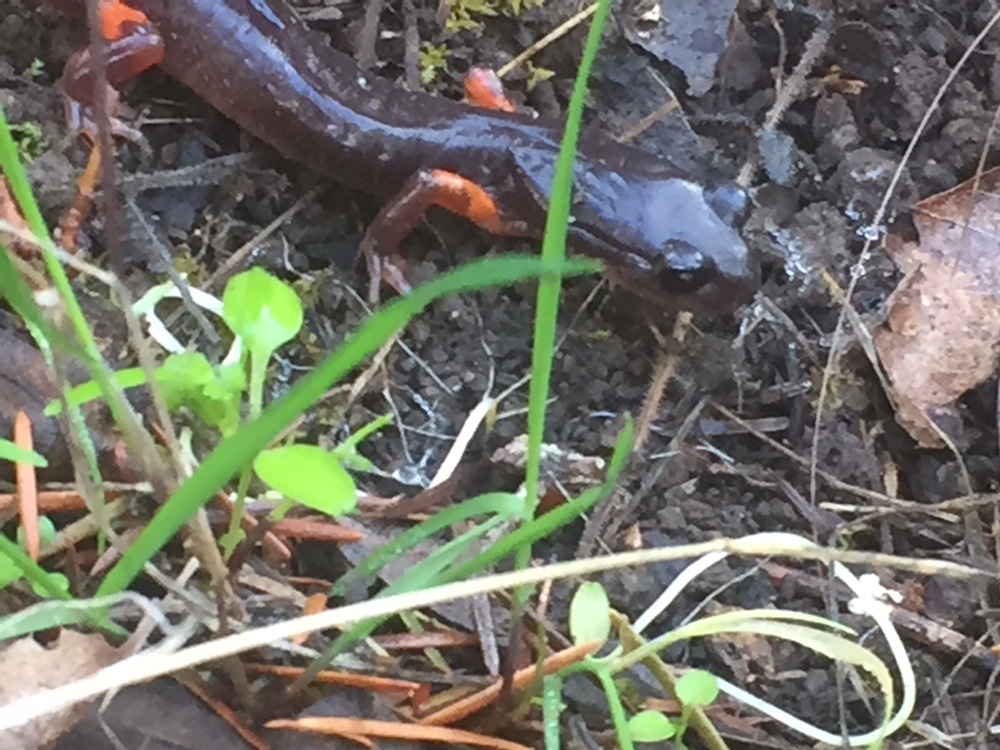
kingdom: Animalia
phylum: Chordata
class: Amphibia
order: Caudata
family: Plethodontidae
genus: Ensatina
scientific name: Ensatina eschscholtzii
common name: Ensatina
